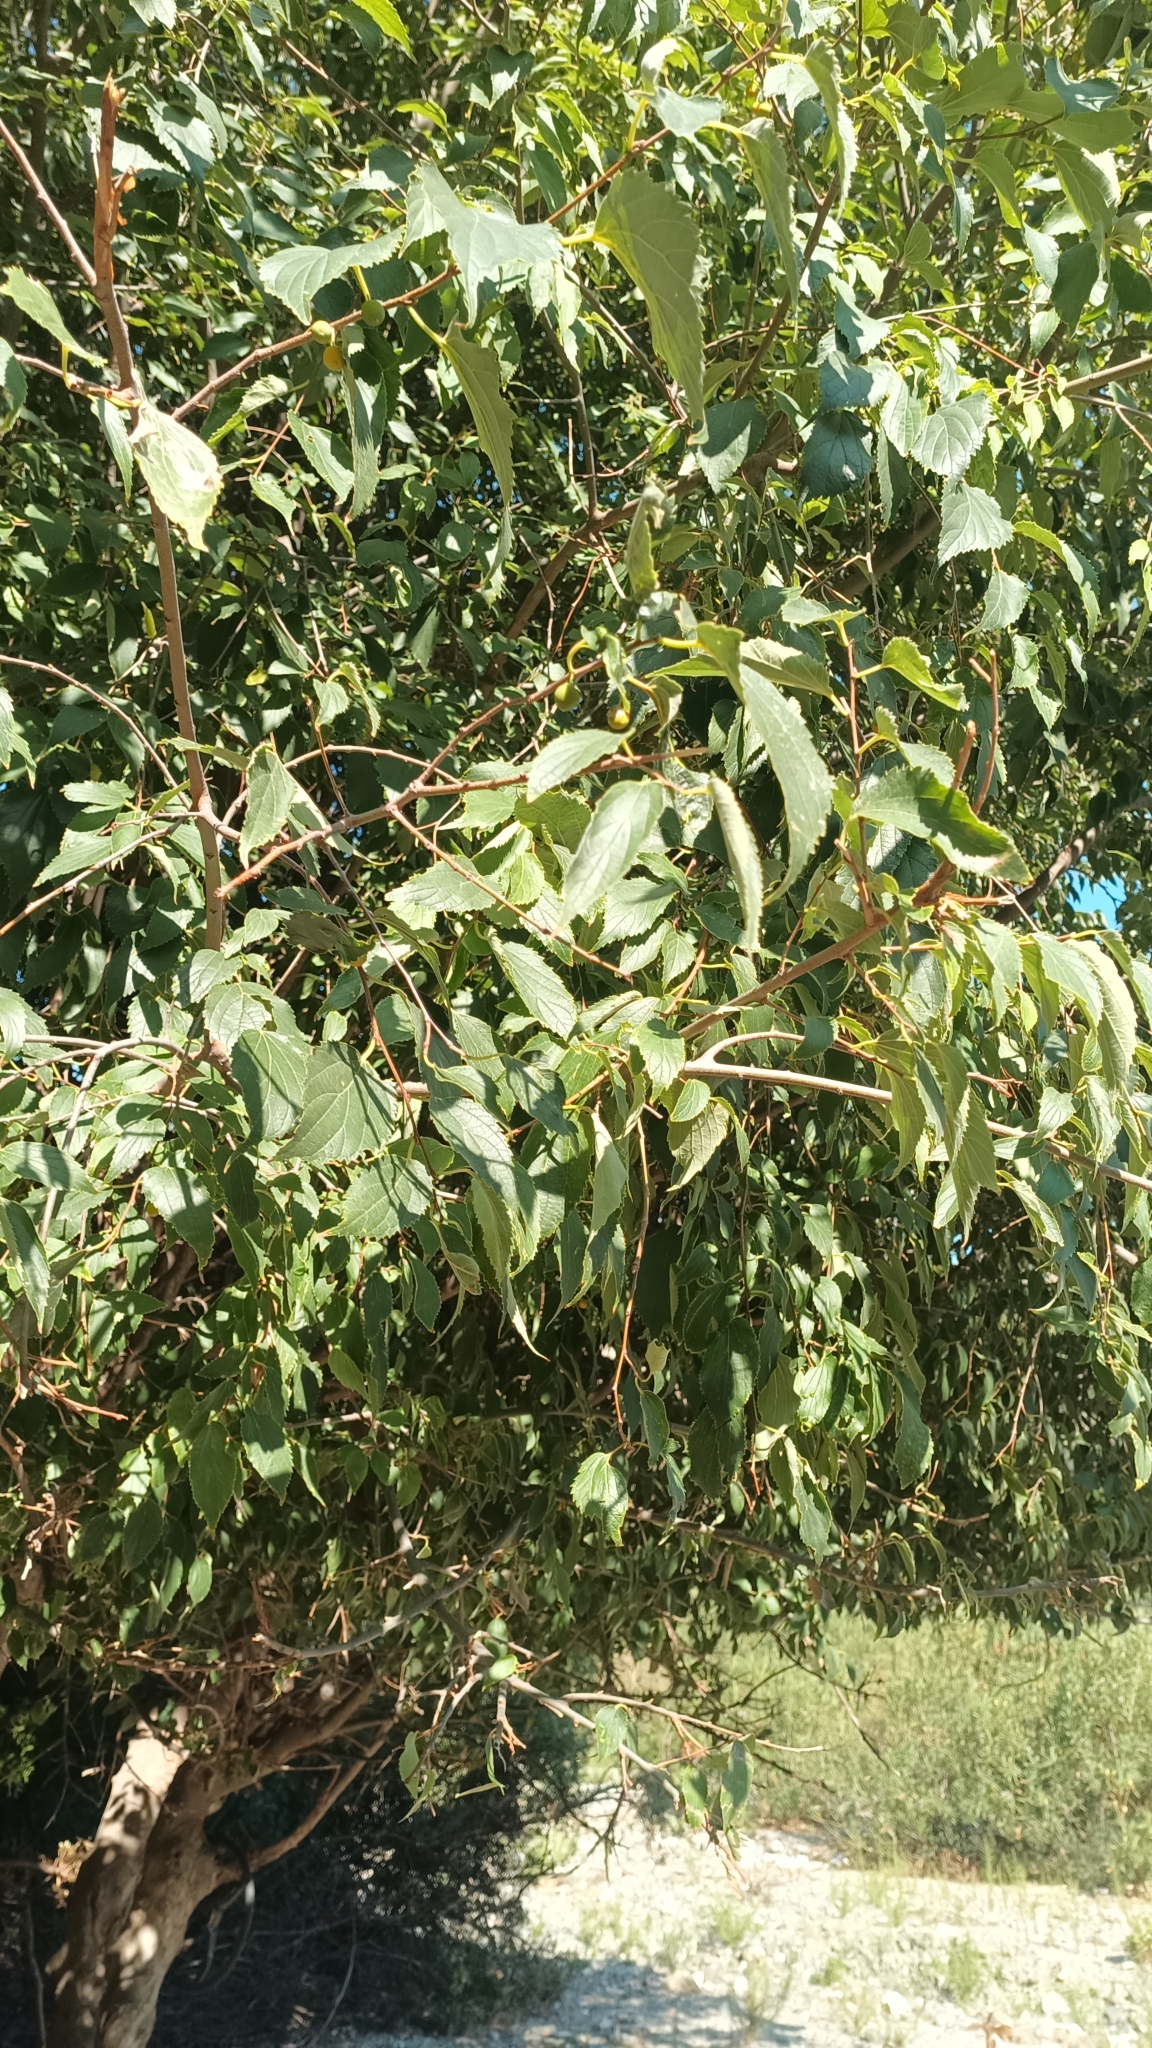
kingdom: Plantae
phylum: Tracheophyta
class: Magnoliopsida
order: Rosales
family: Cannabaceae
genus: Celtis
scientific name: Celtis australis
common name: European hackberry
